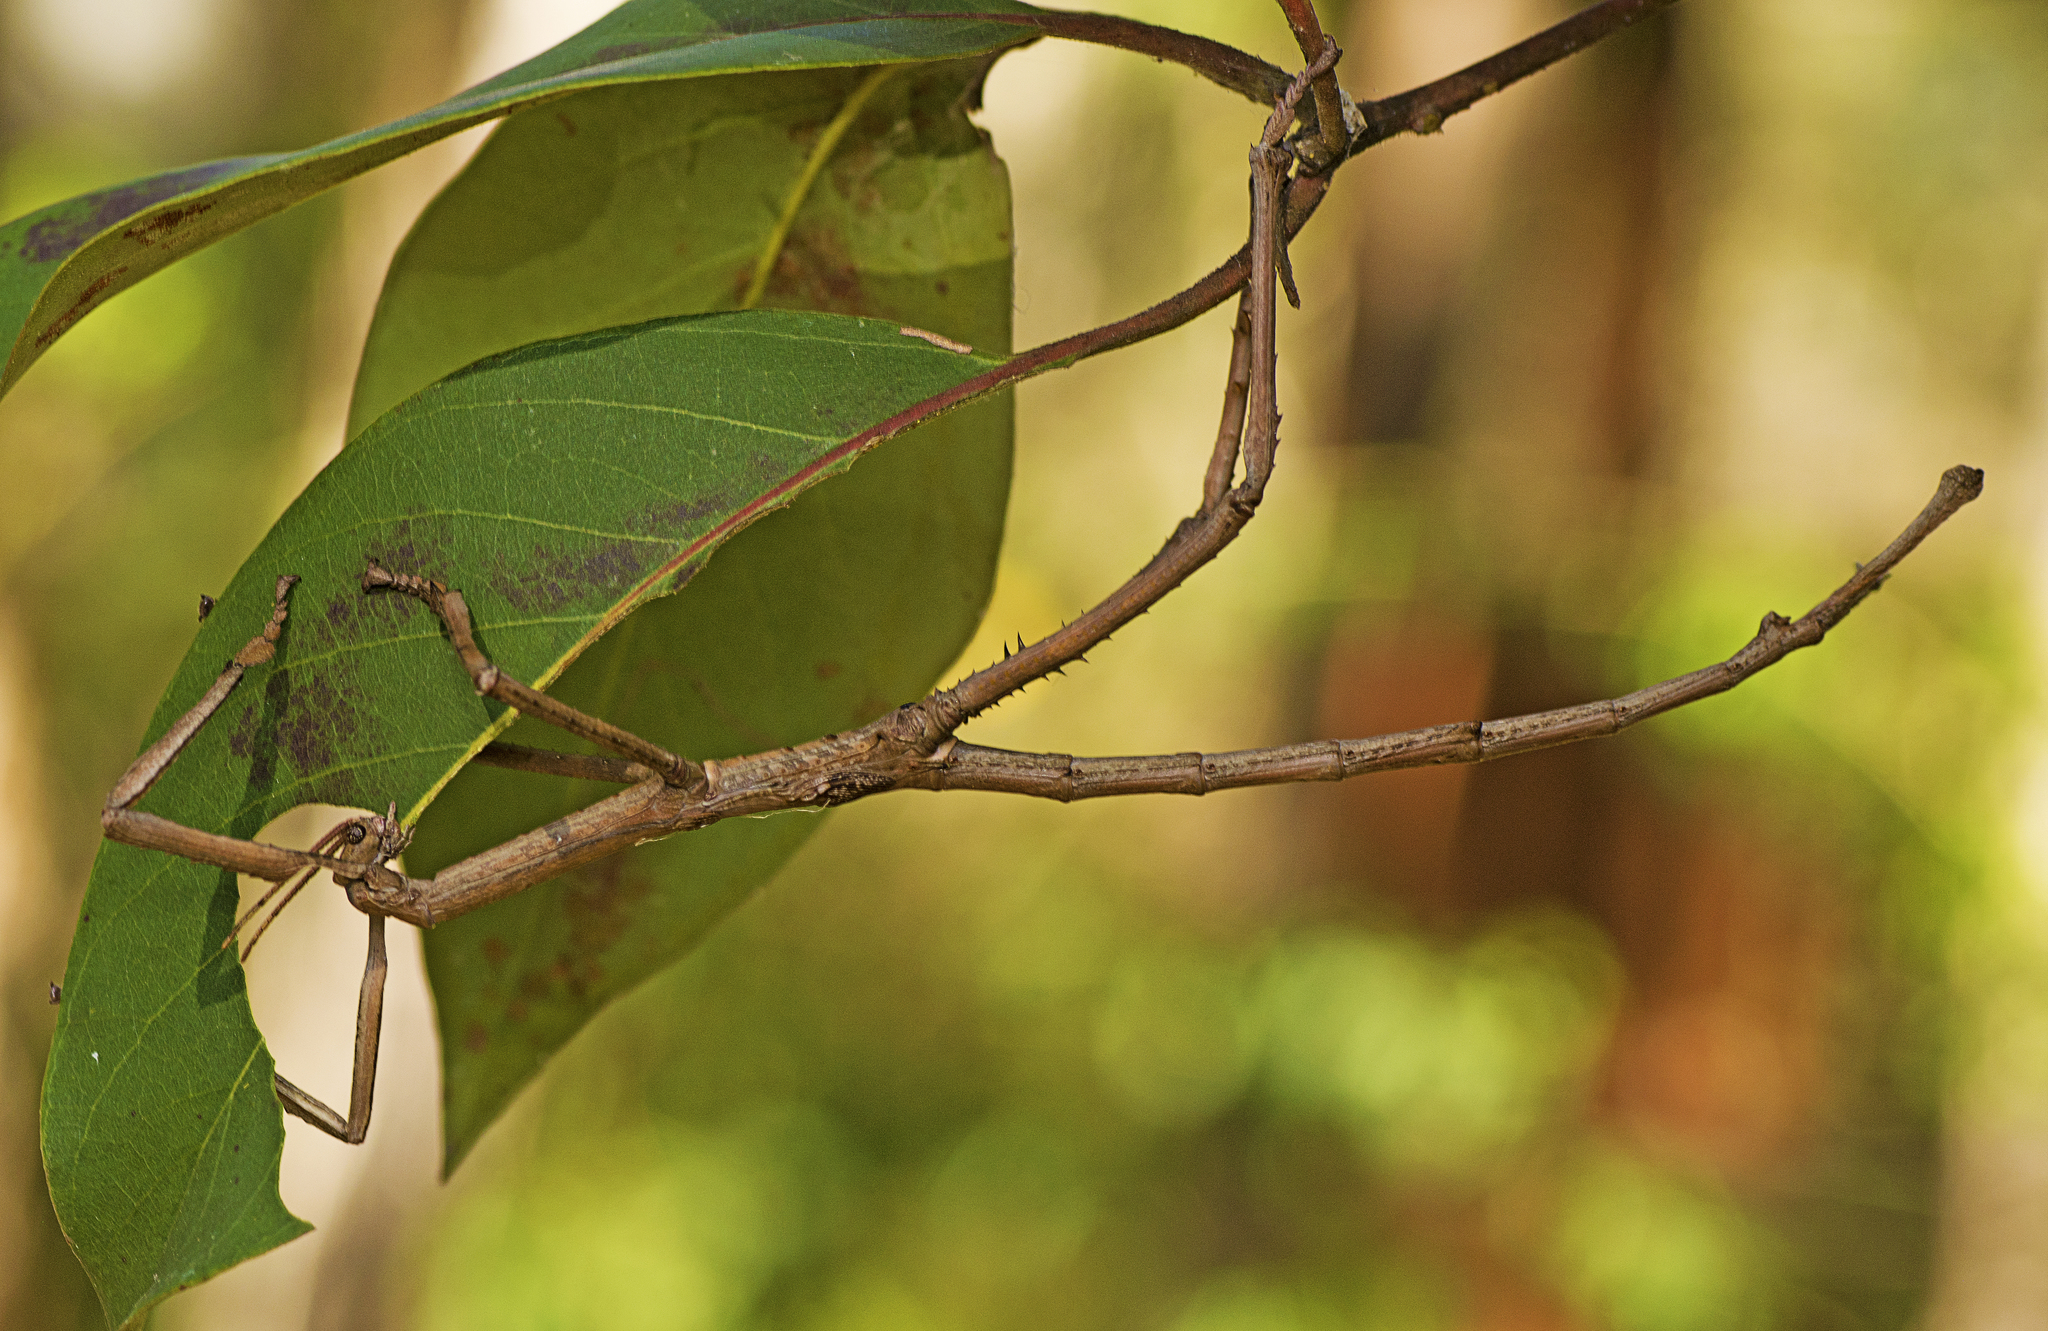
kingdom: Animalia
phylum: Arthropoda
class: Insecta
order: Phasmida
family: Phasmatidae
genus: Eurycnema
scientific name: Eurycnema goliath
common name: Goliath stick insect
